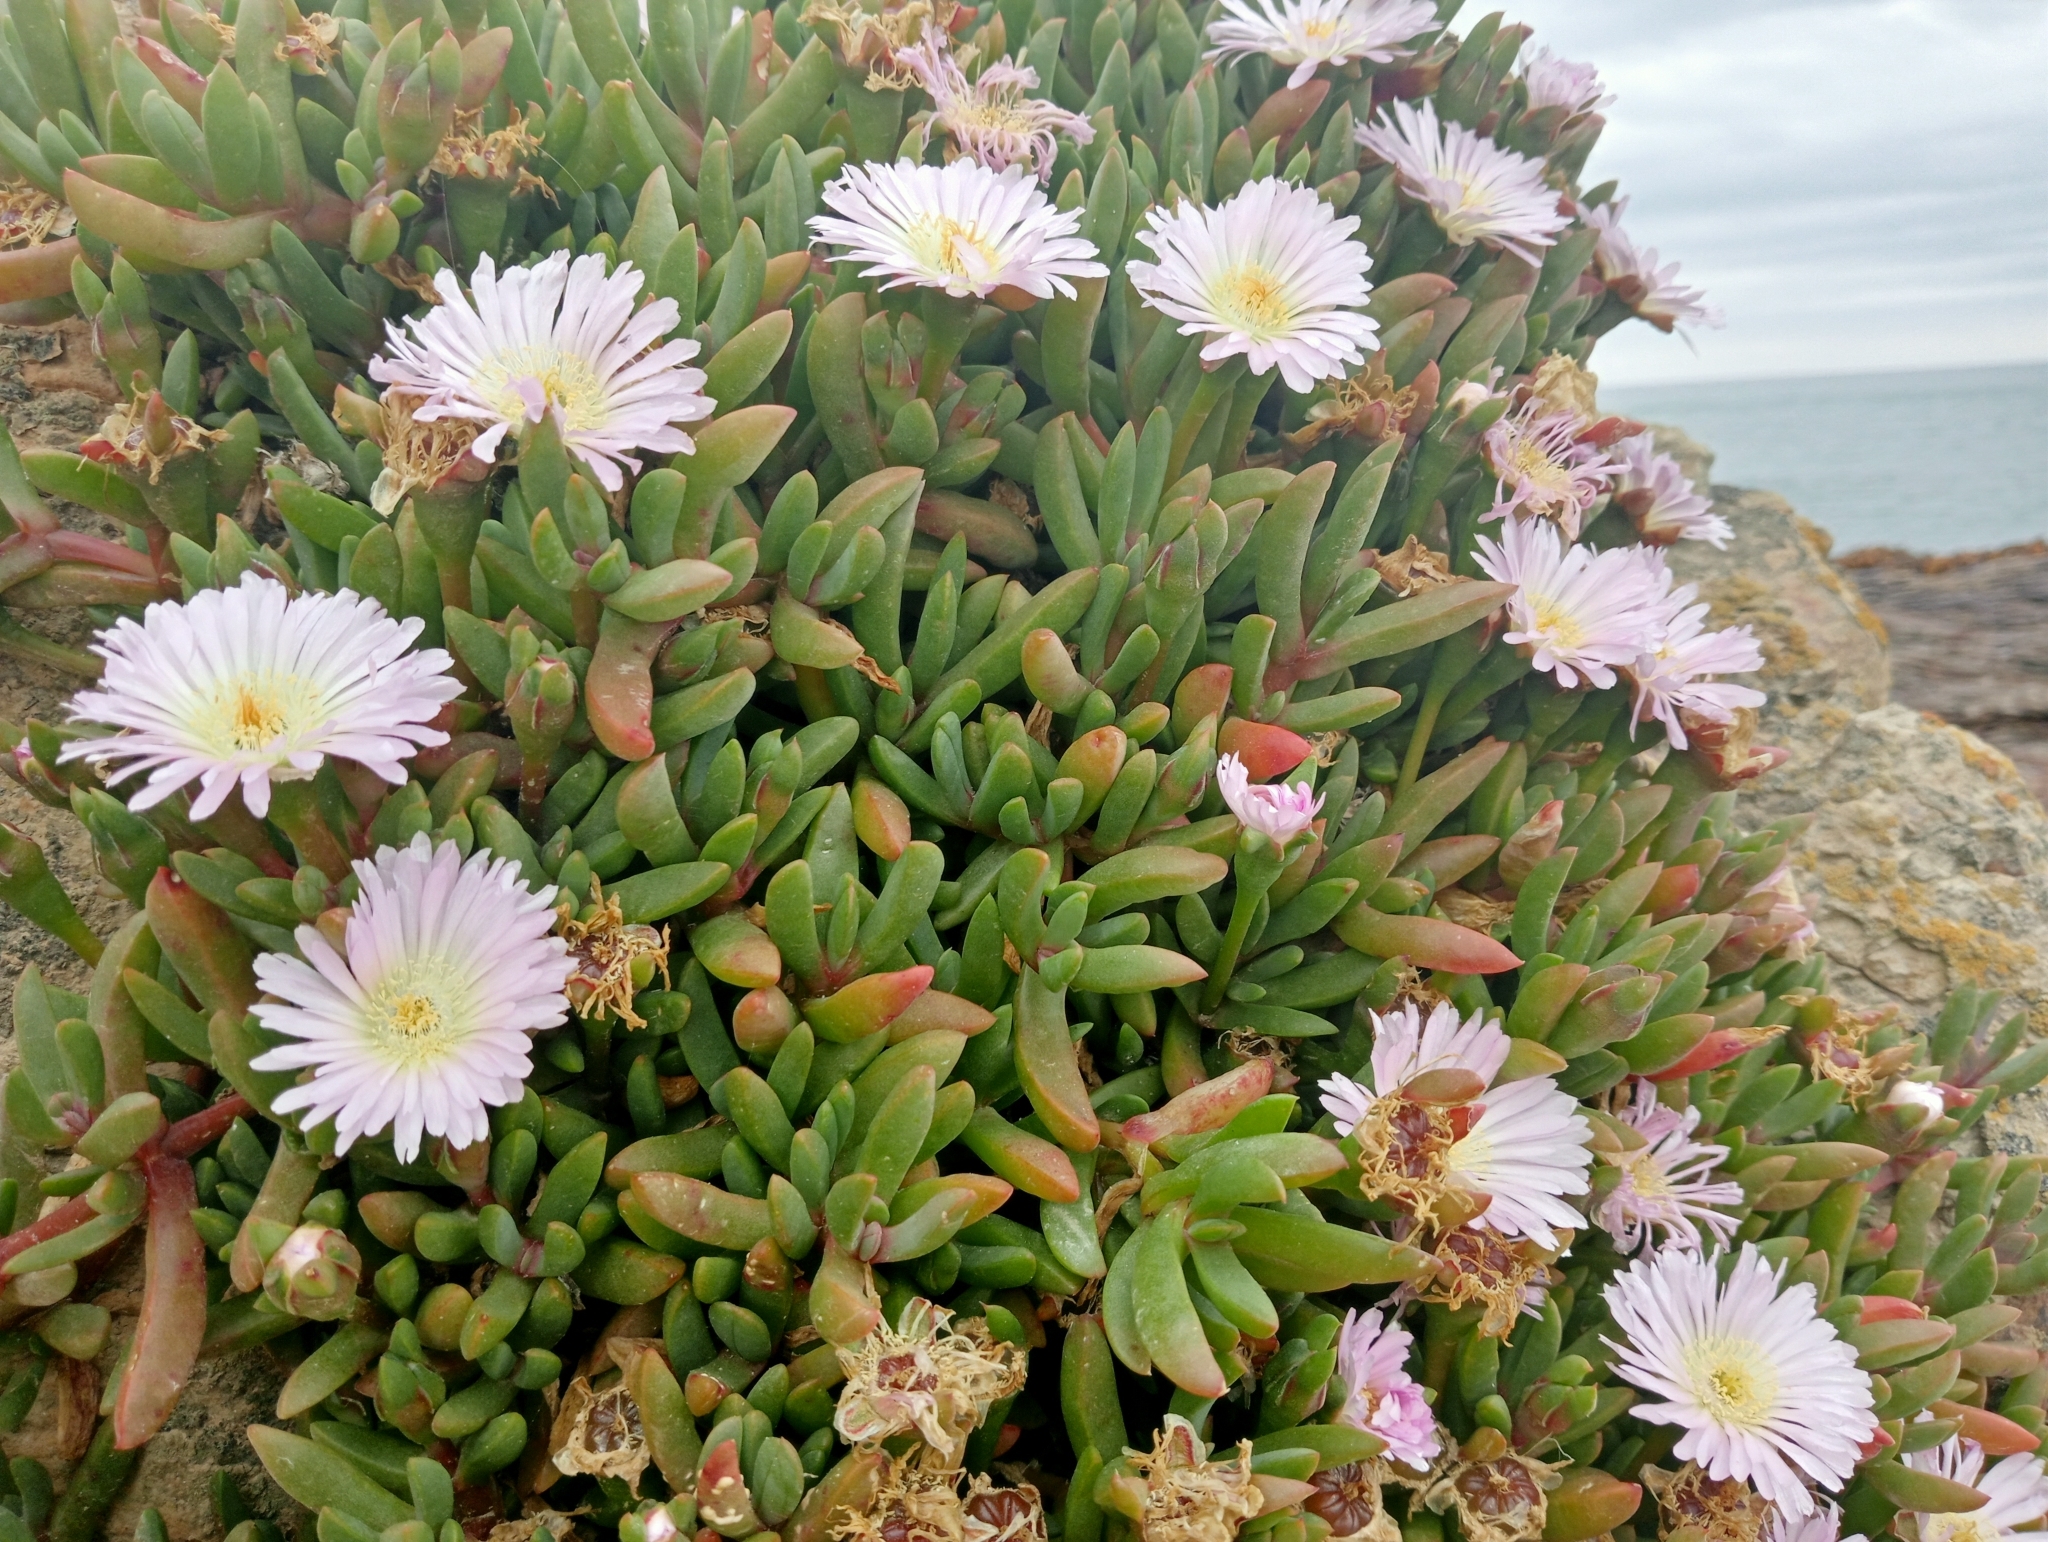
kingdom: Plantae
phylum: Tracheophyta
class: Magnoliopsida
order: Caryophyllales
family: Aizoaceae
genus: Disphyma
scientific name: Disphyma australe
